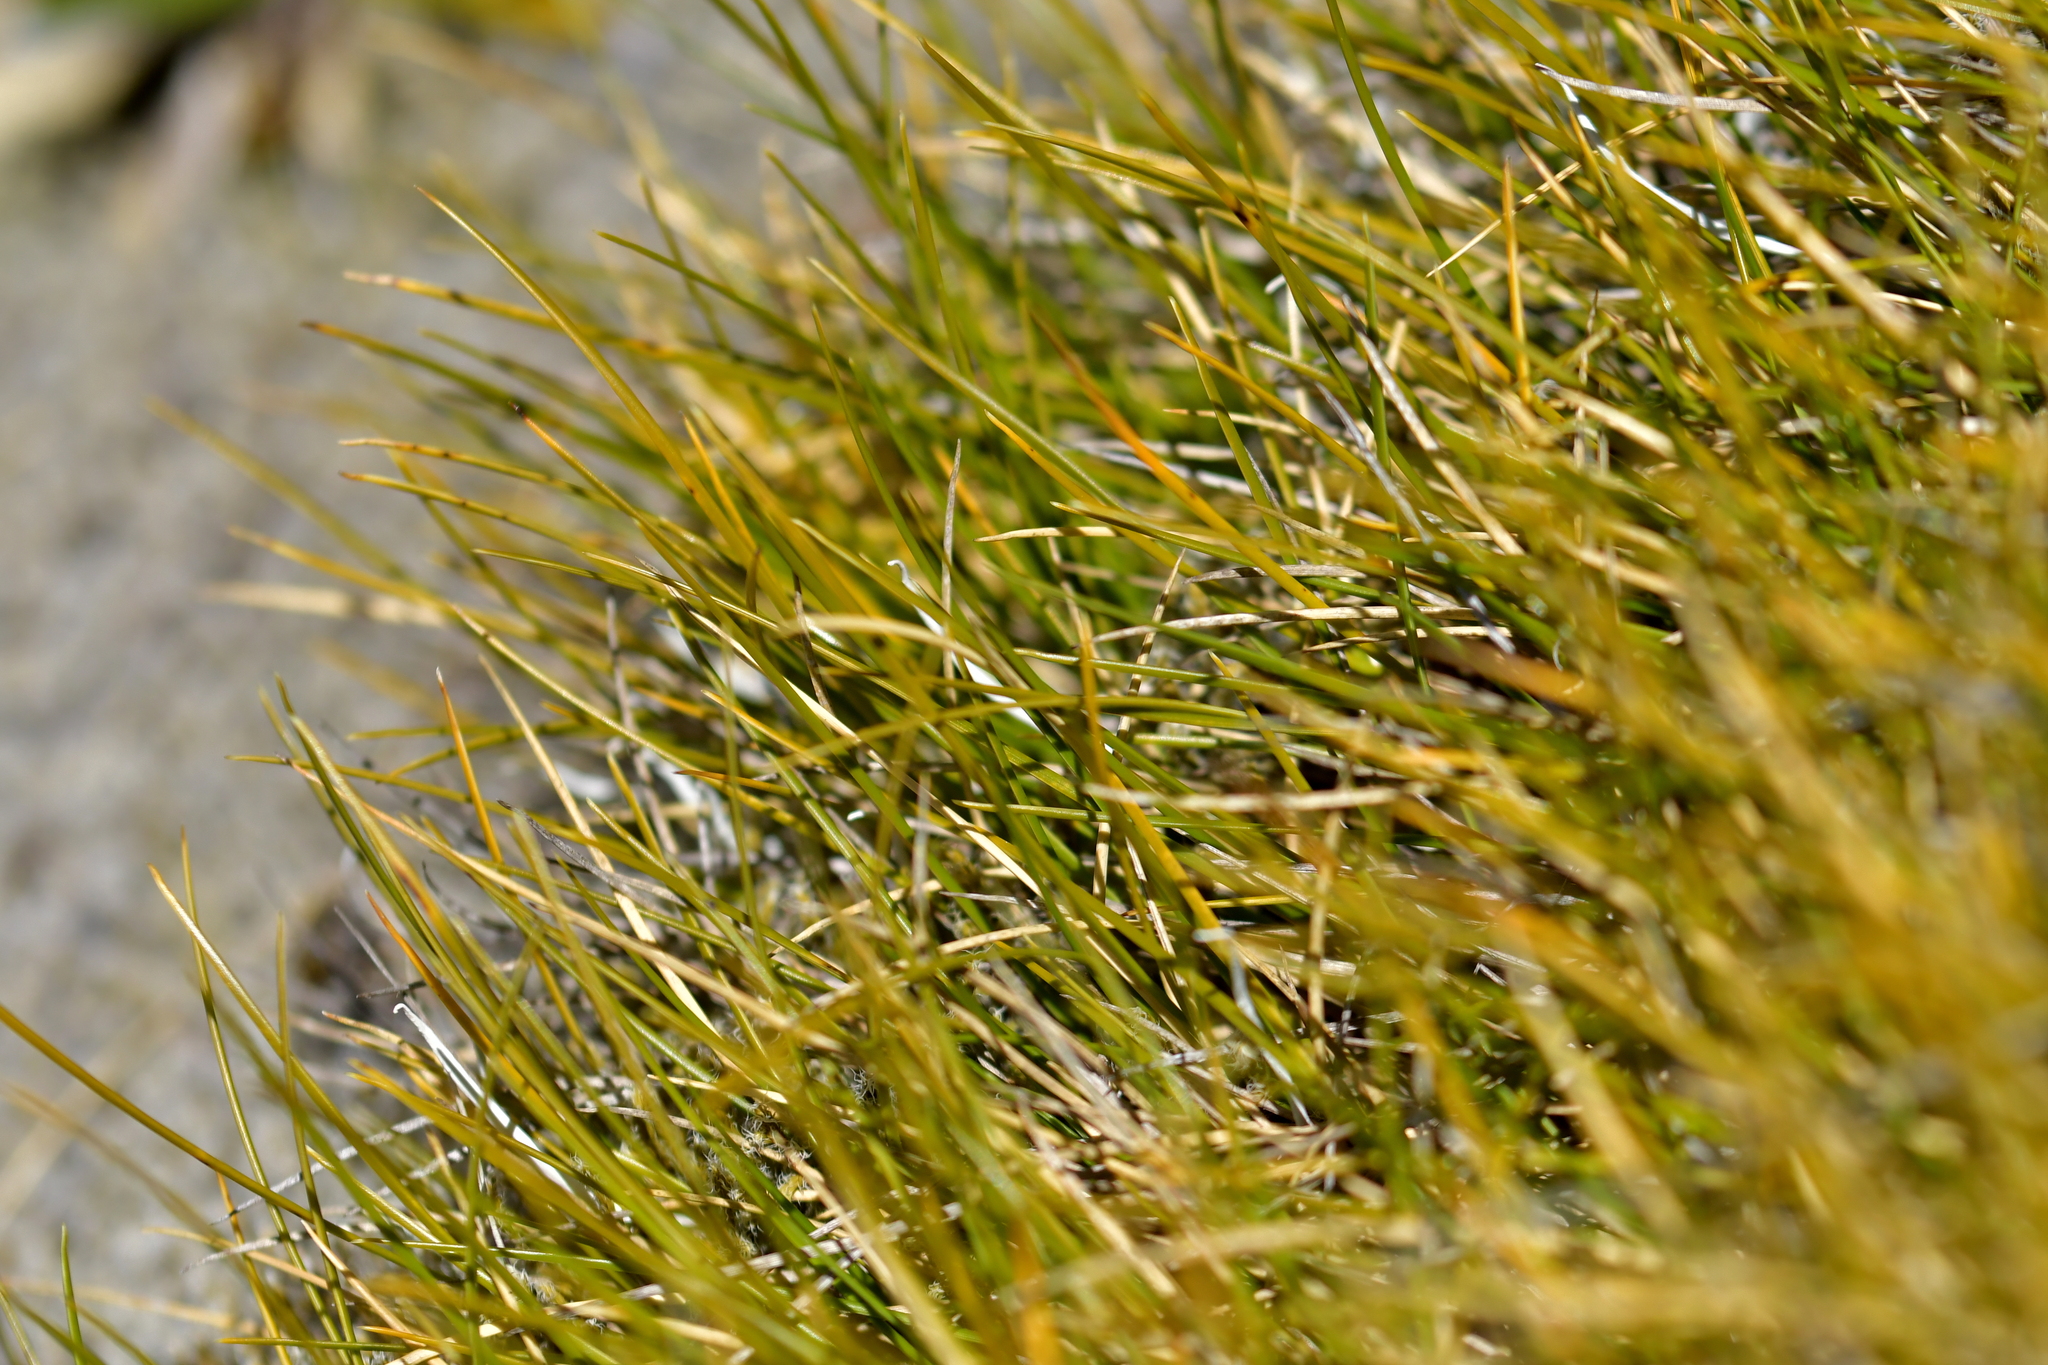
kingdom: Plantae
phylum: Tracheophyta
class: Liliopsida
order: Poales
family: Poaceae
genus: Chionochloa
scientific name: Chionochloa australis
